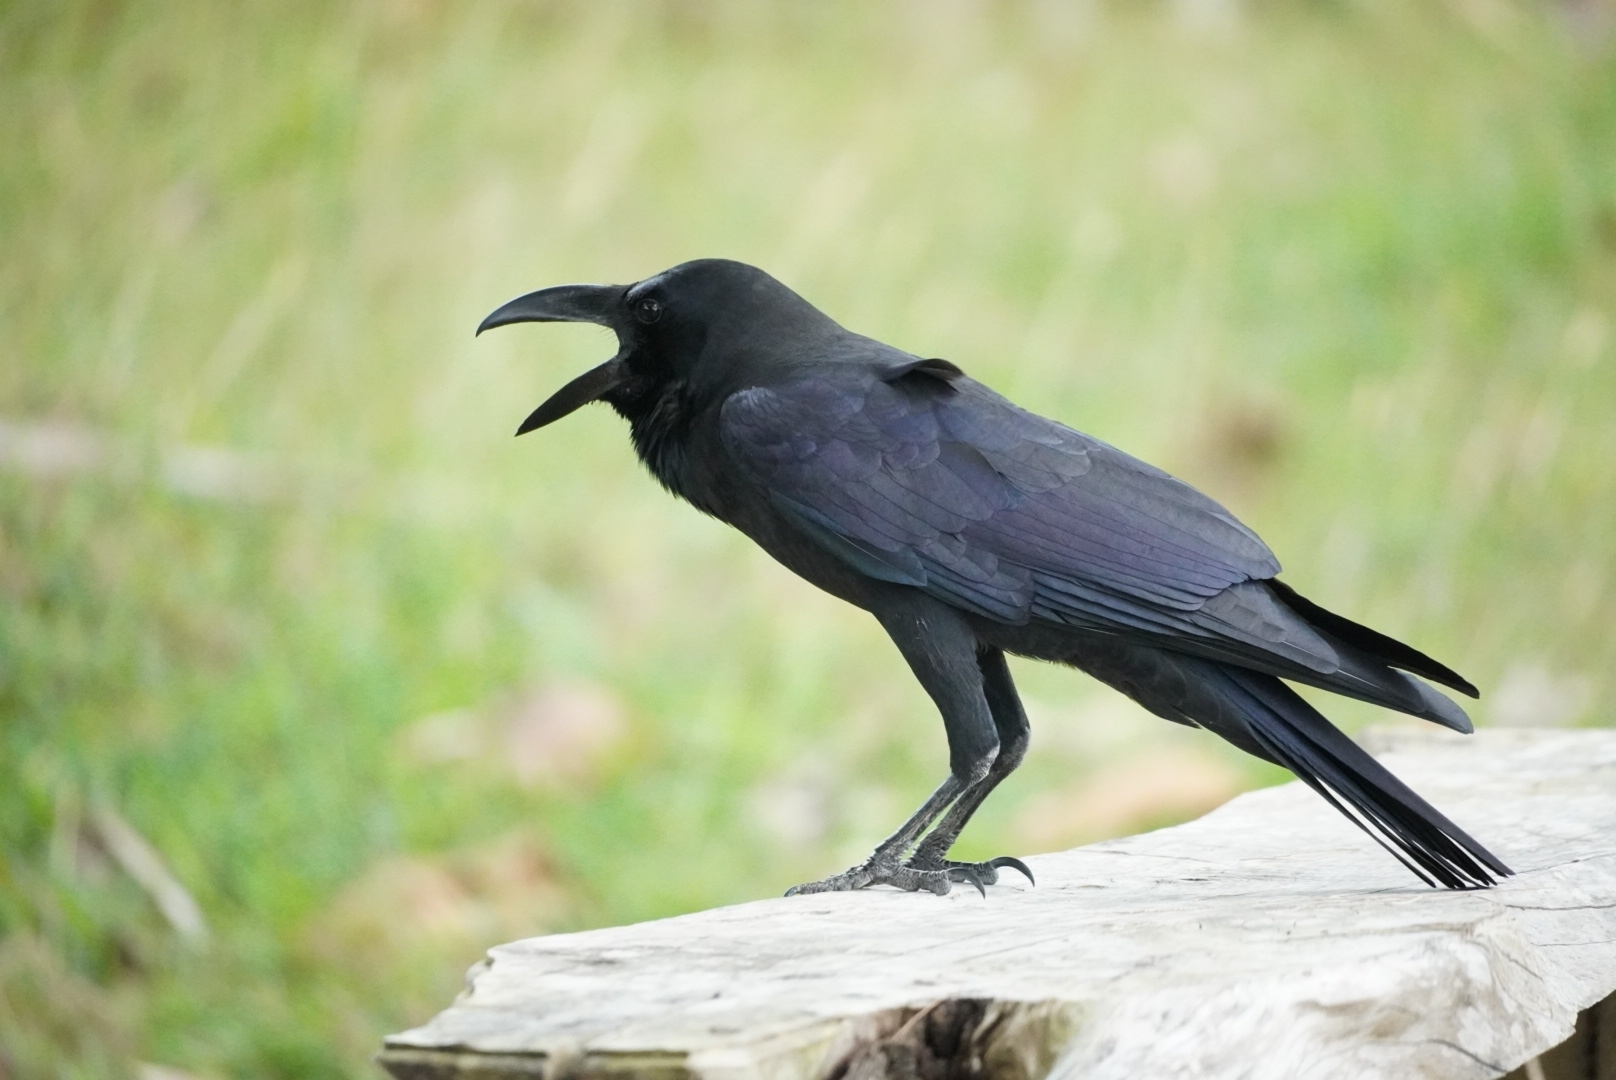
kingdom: Animalia
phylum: Chordata
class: Aves
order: Passeriformes
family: Corvidae
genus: Corvus
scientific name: Corvus macrorhynchos
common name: Large-billed crow
